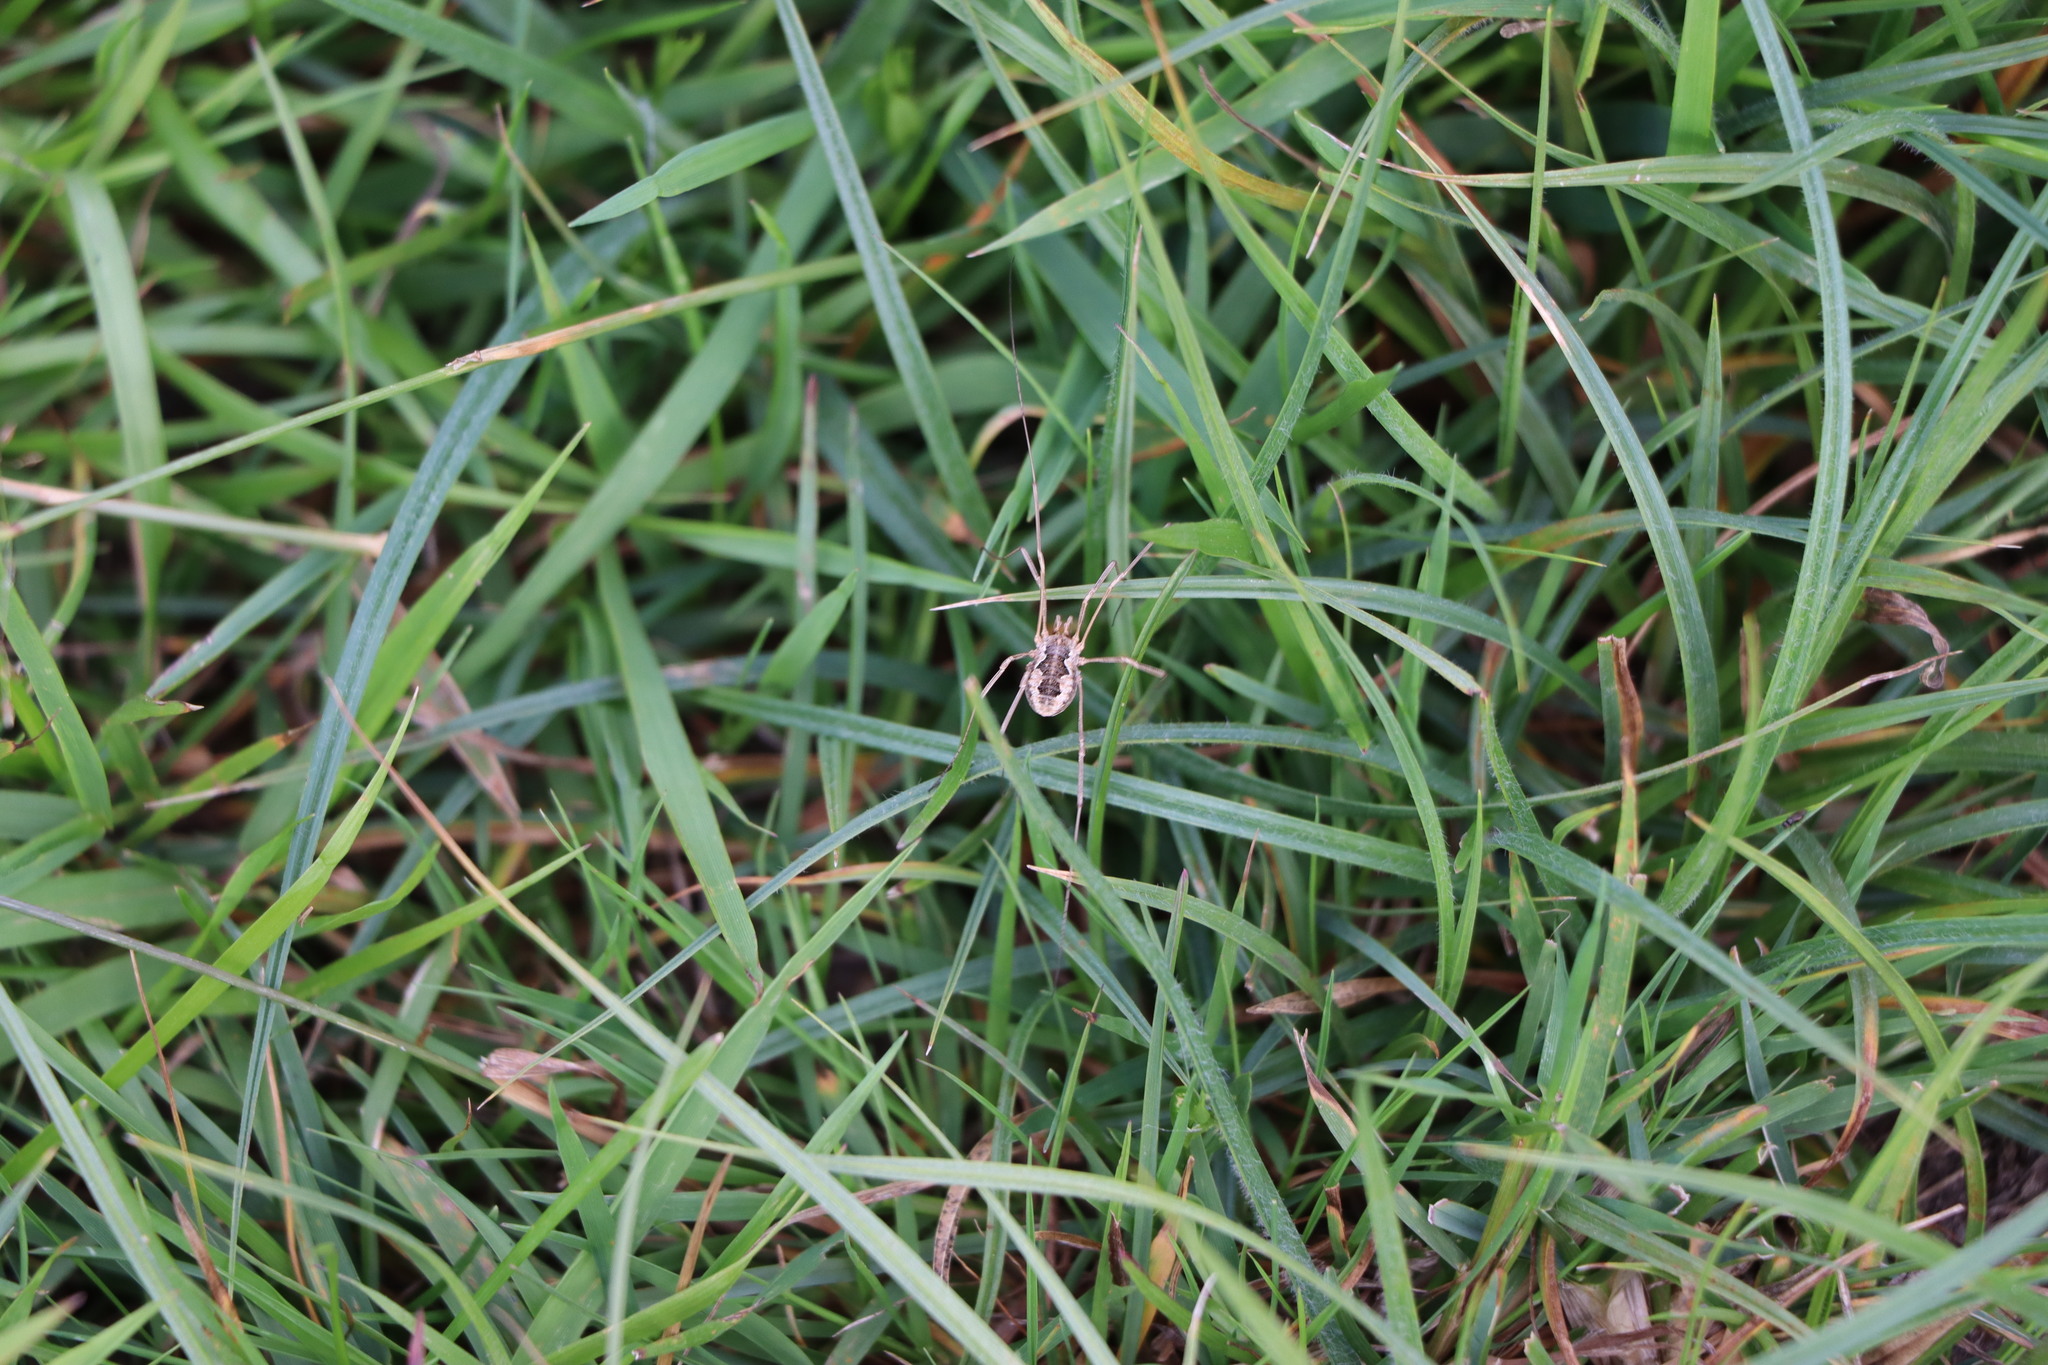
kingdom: Animalia
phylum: Arthropoda
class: Arachnida
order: Opiliones
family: Phalangiidae
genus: Phalangium
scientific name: Phalangium opilio
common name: Daddy longleg
